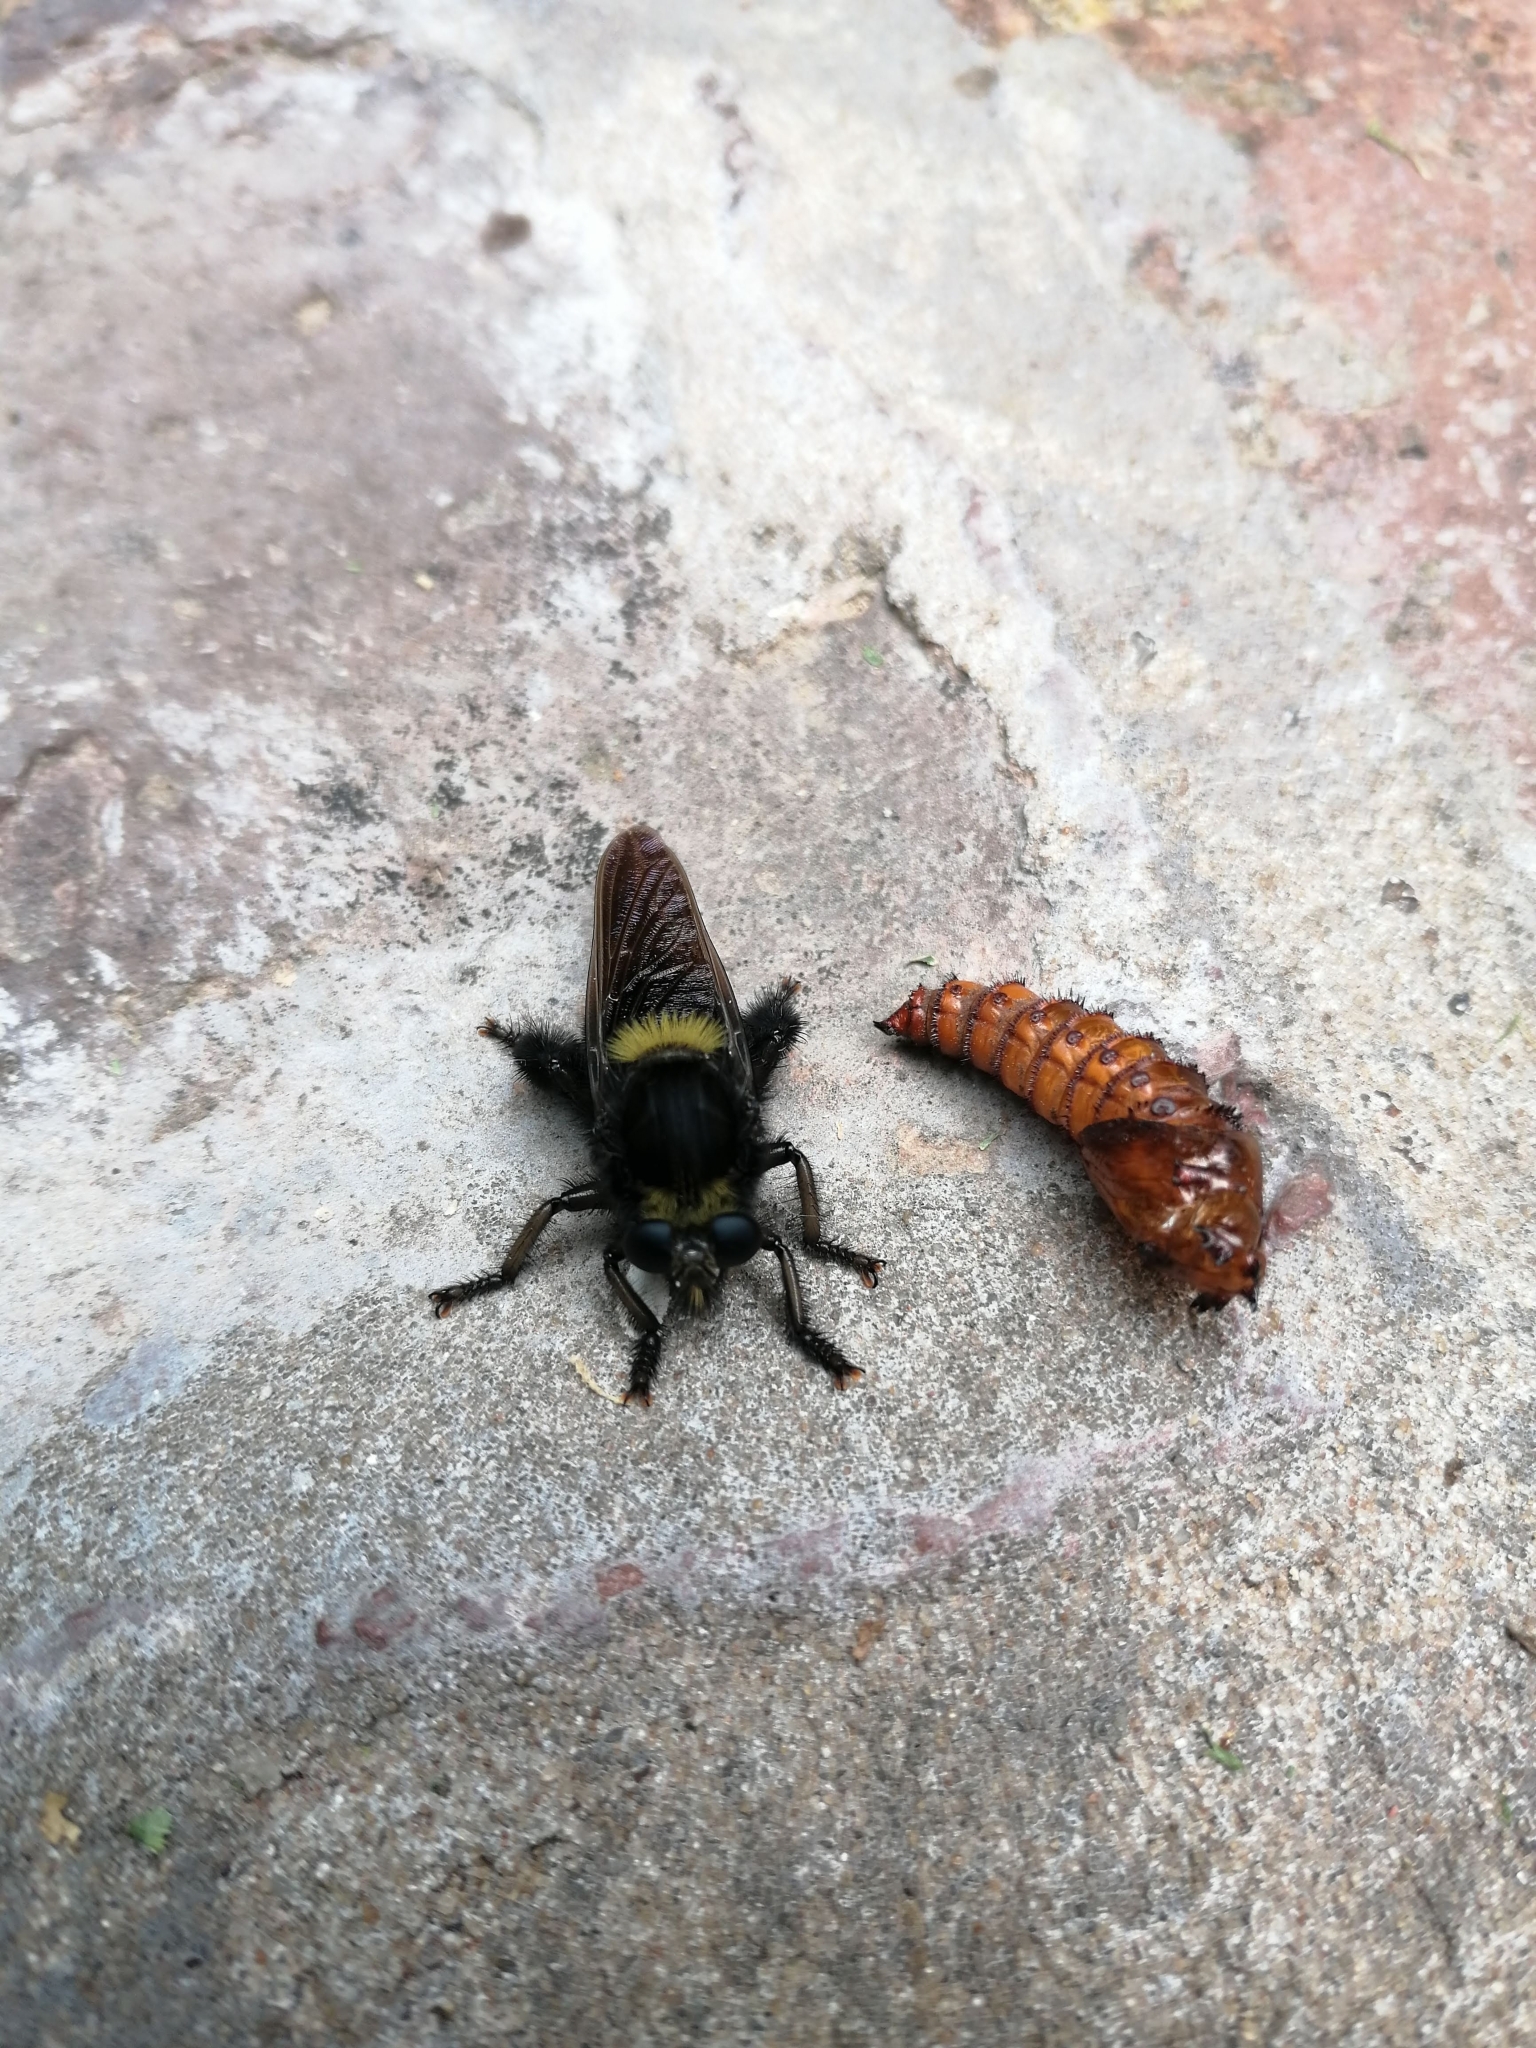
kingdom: Animalia
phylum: Arthropoda
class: Insecta
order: Diptera
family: Asilidae
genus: Mallophora
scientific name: Mallophora ruficauda
